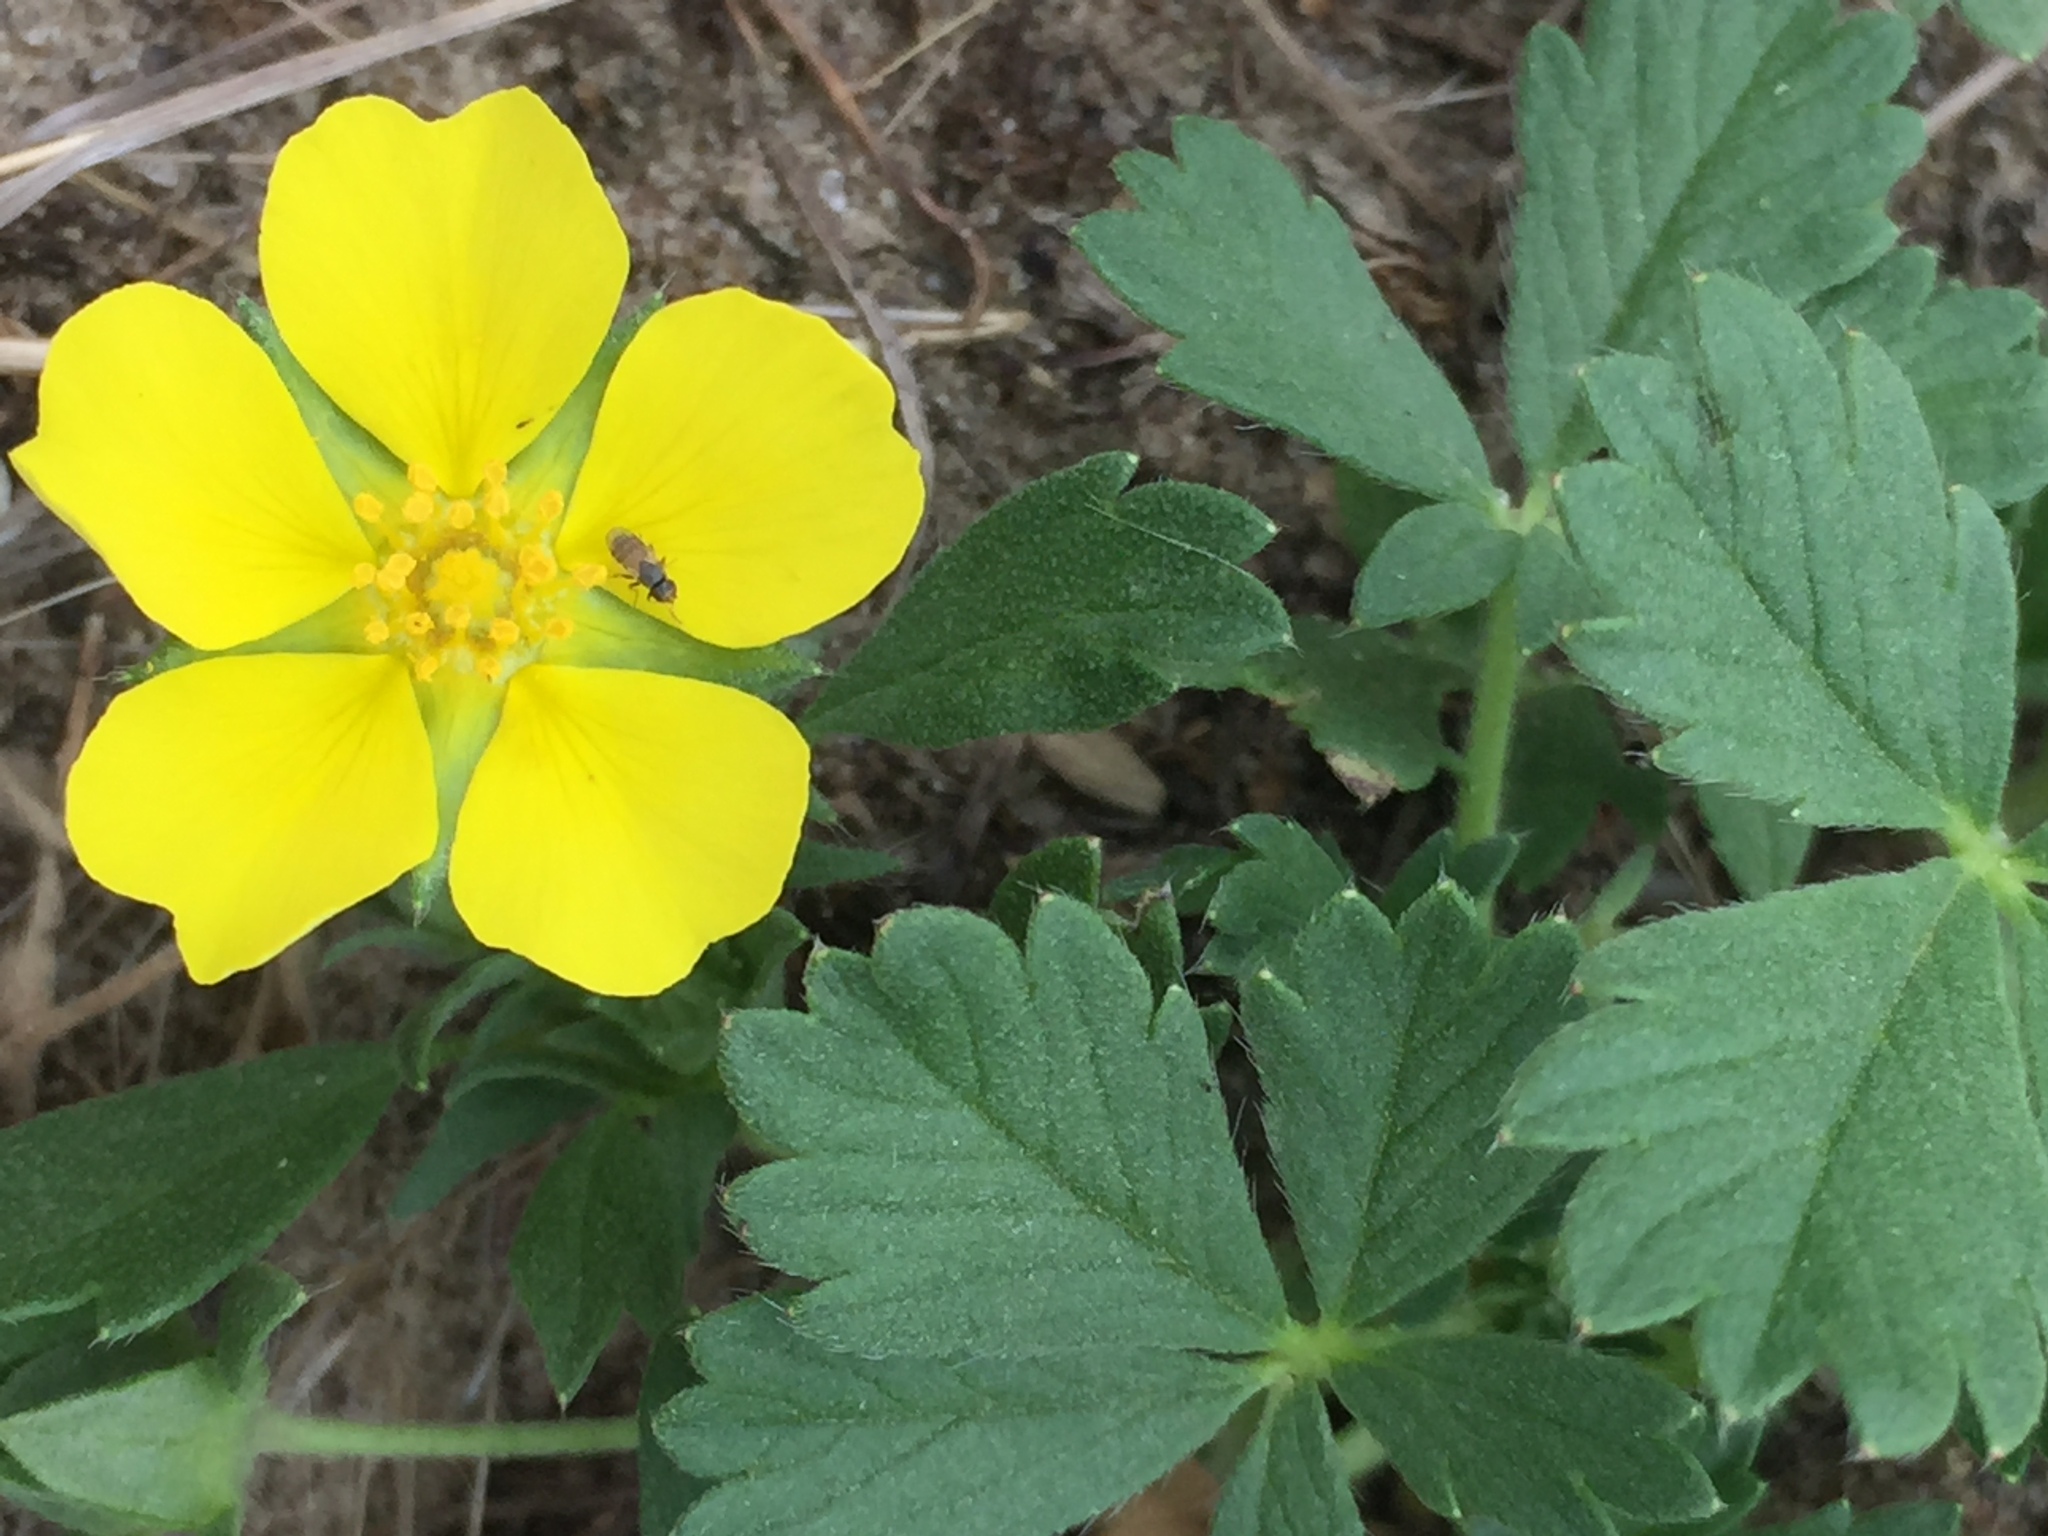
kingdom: Plantae
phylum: Tracheophyta
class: Magnoliopsida
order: Rosales
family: Rosaceae
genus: Potentilla
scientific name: Potentilla incana
